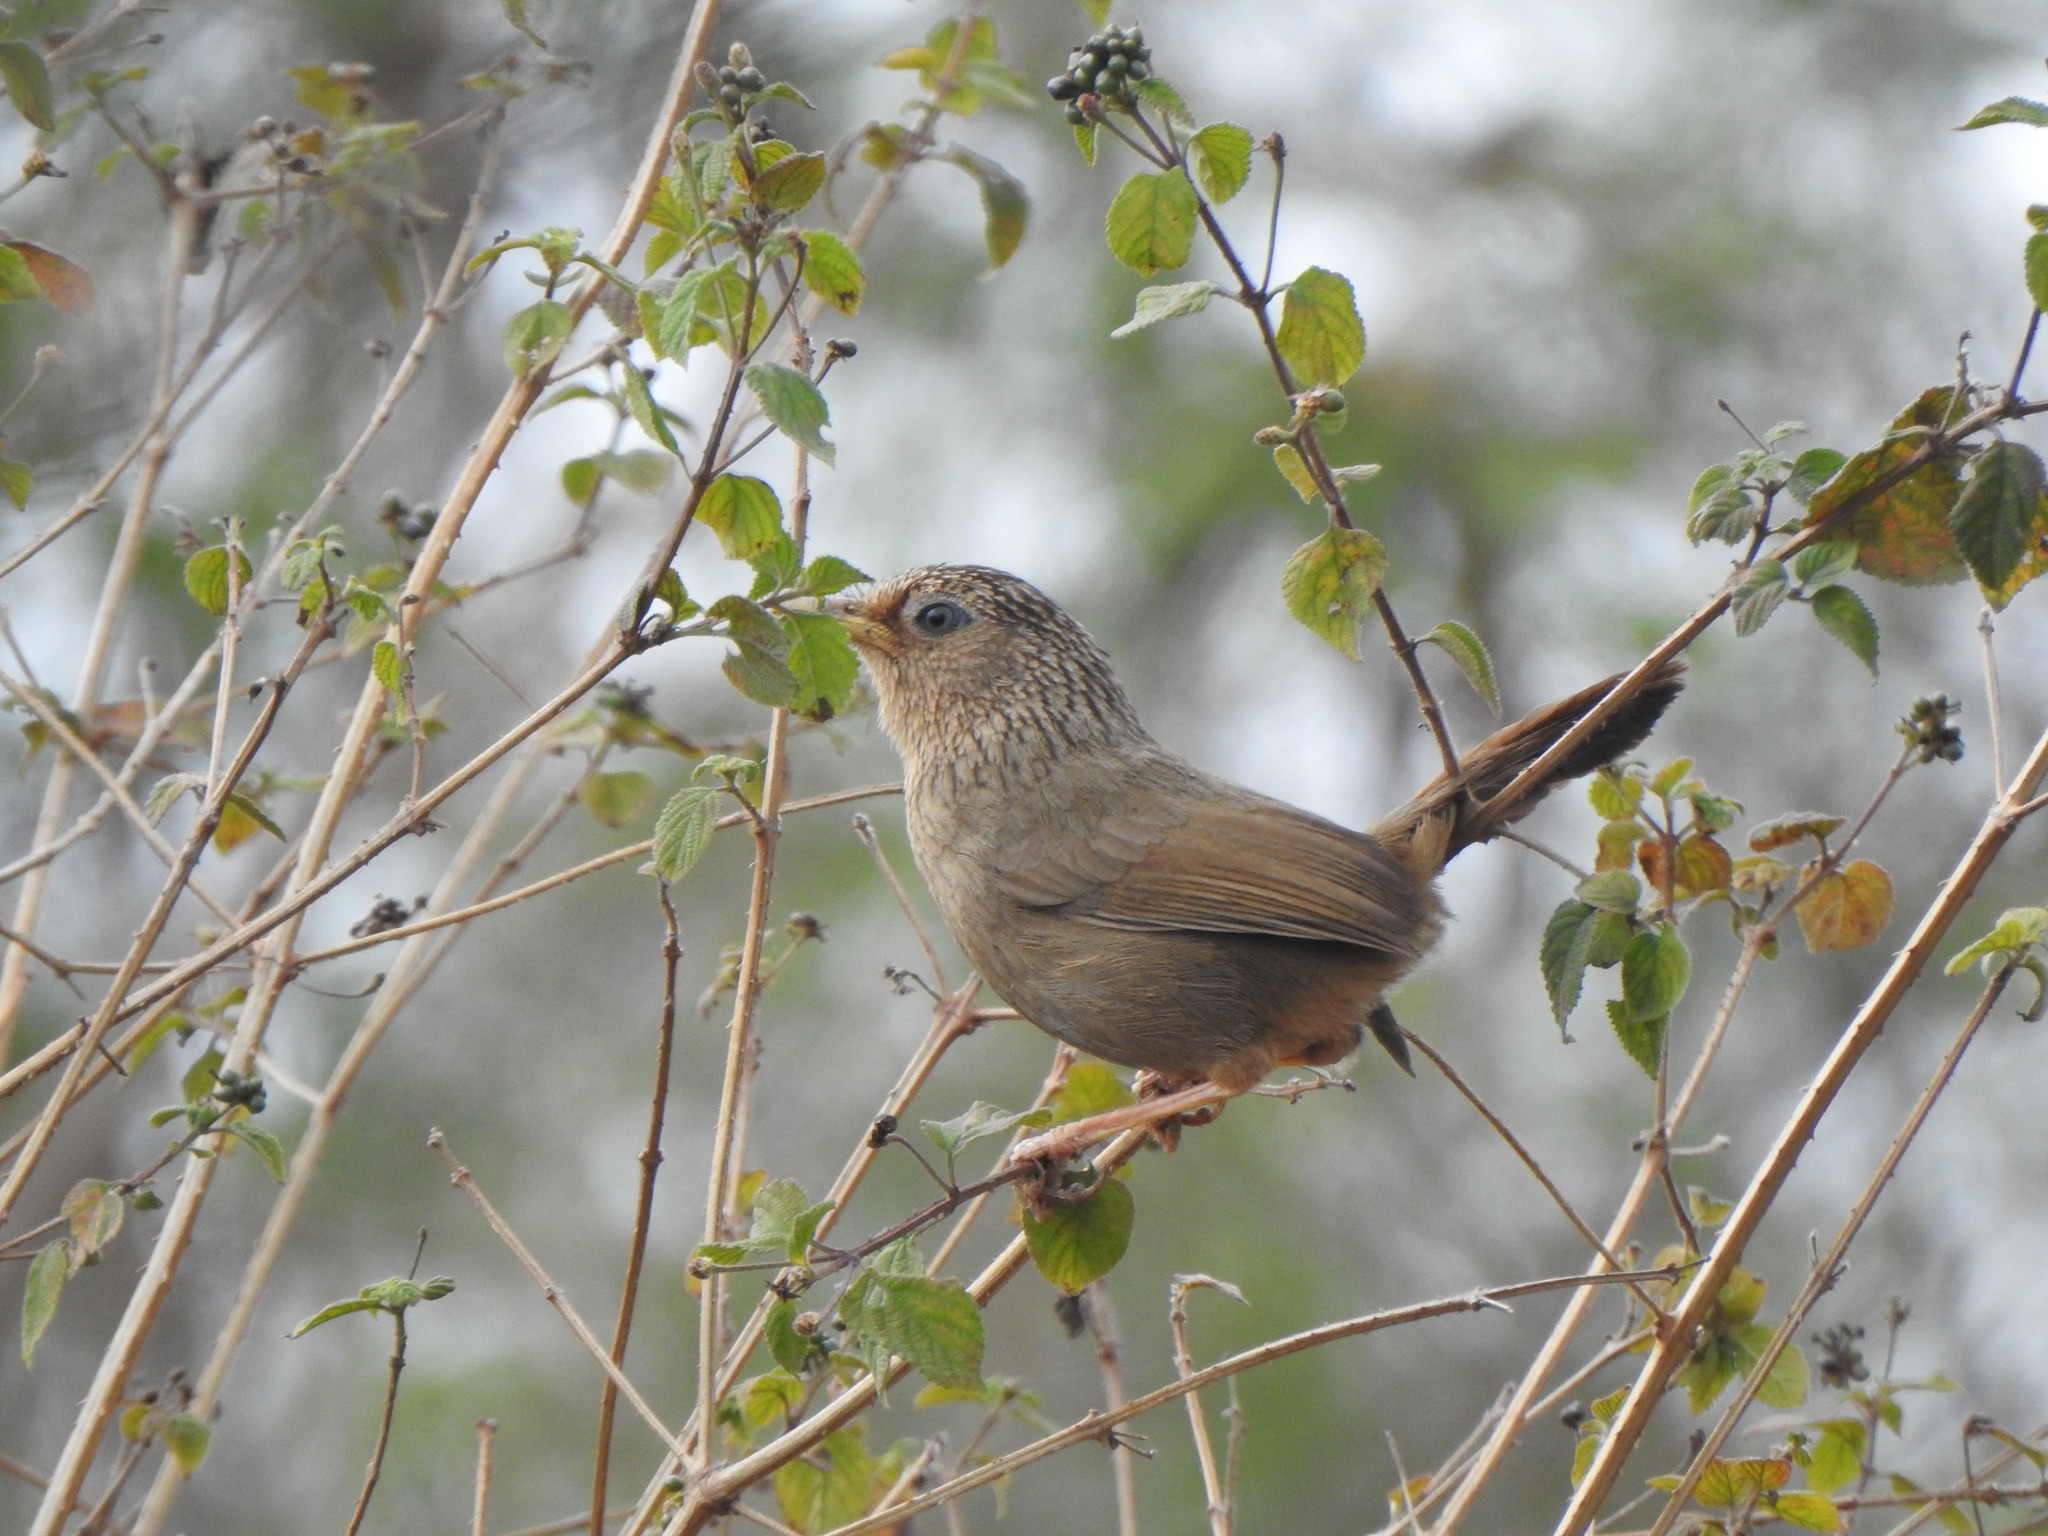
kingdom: Animalia
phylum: Chordata
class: Aves
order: Passeriformes
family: Leiothrichidae
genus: Garrulax
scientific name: Garrulax taewanus
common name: Taiwan hwamei
